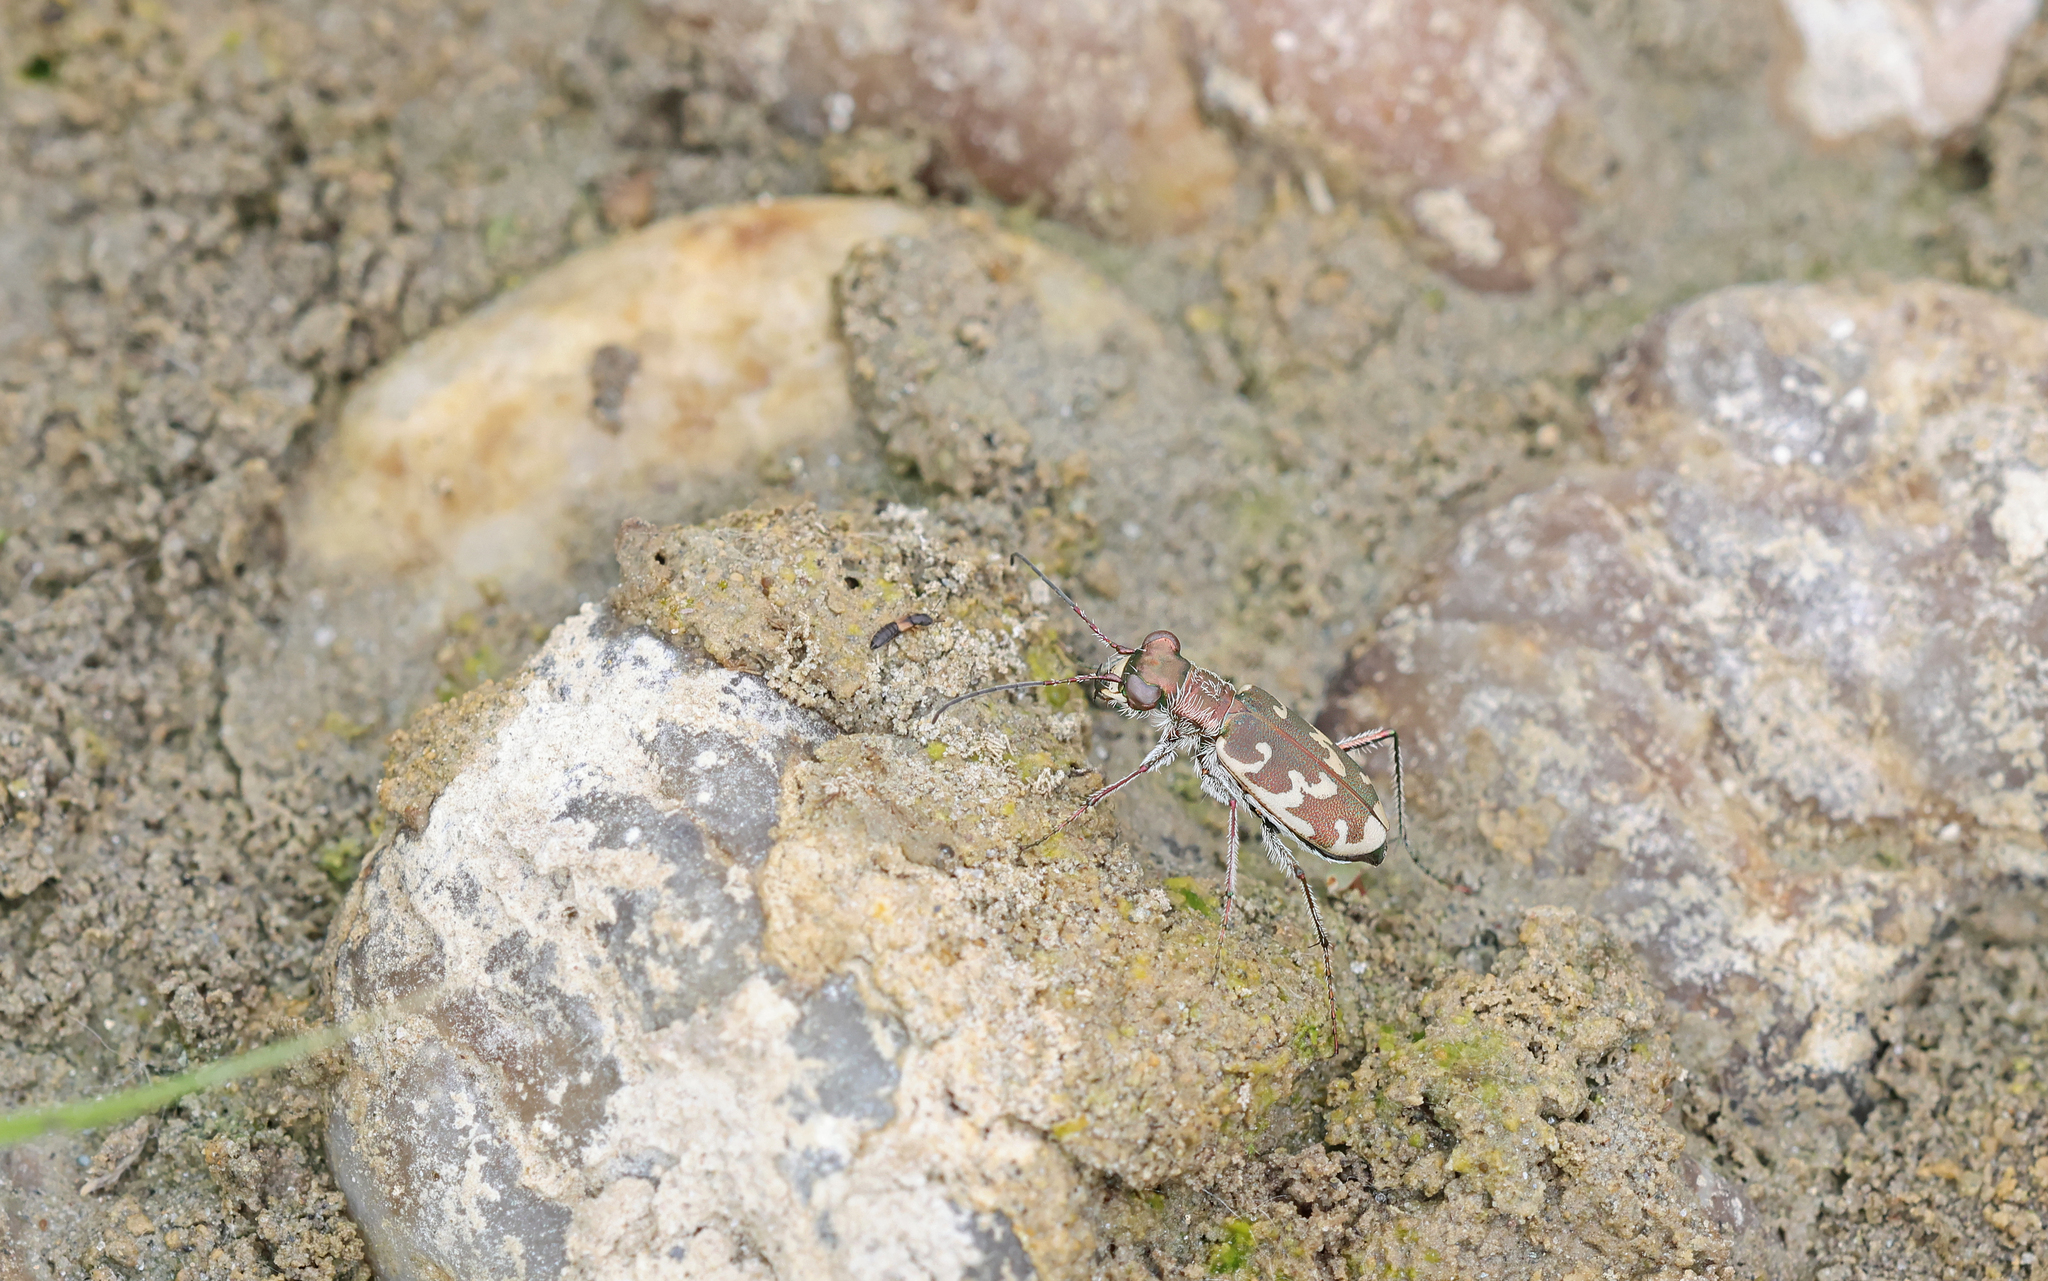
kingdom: Animalia
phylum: Arthropoda
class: Insecta
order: Coleoptera
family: Carabidae
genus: Cylindera
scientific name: Cylindera arenaria
